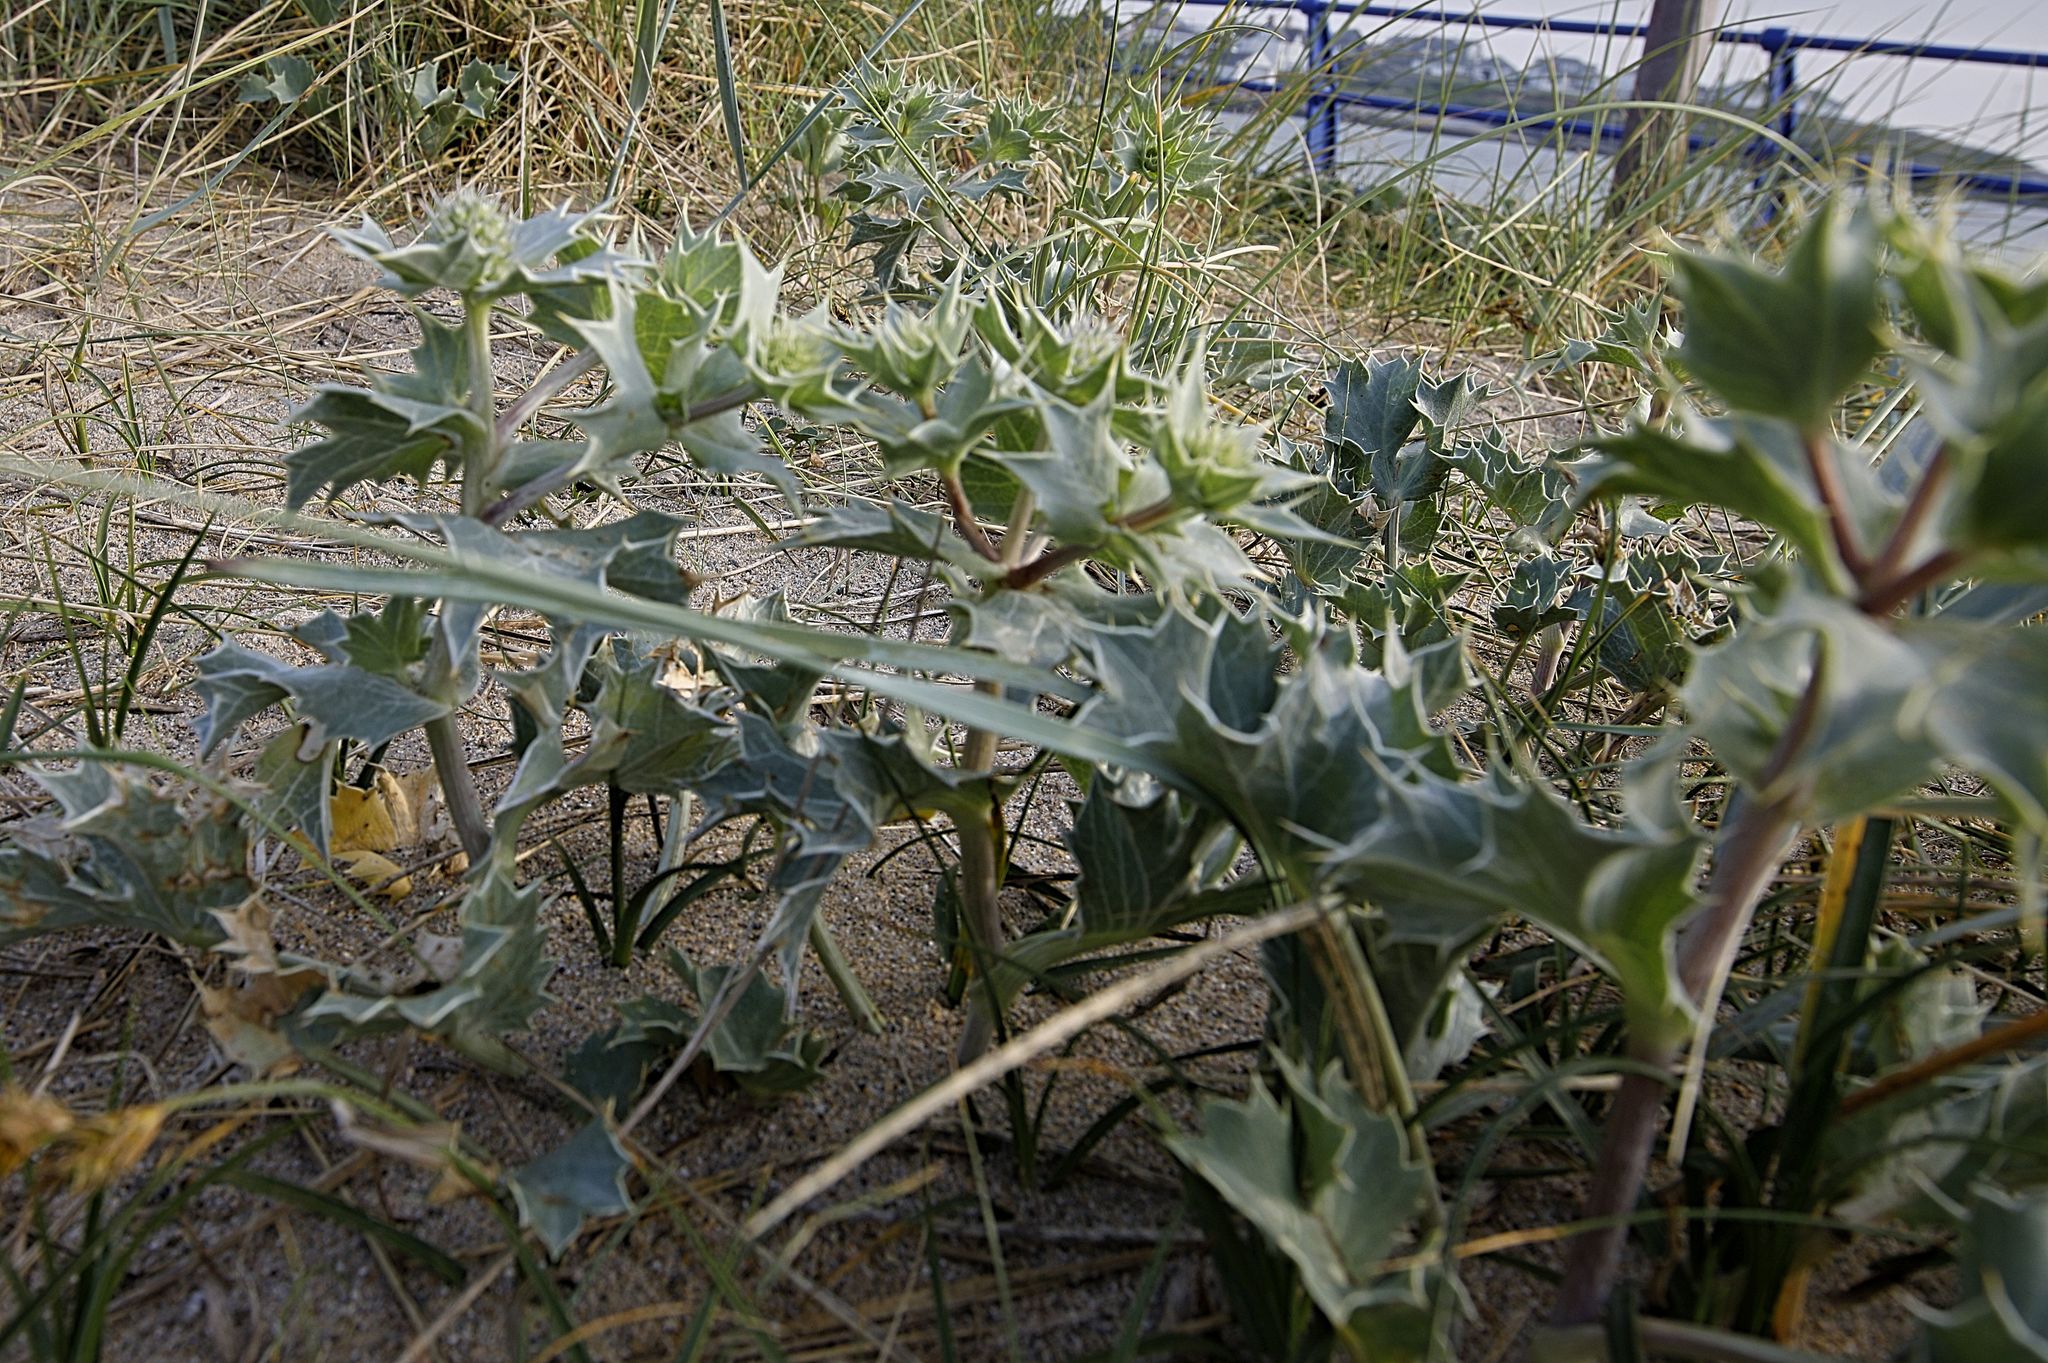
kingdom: Plantae
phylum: Tracheophyta
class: Magnoliopsida
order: Apiales
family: Apiaceae
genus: Eryngium
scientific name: Eryngium maritimum
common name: Sea-holly
